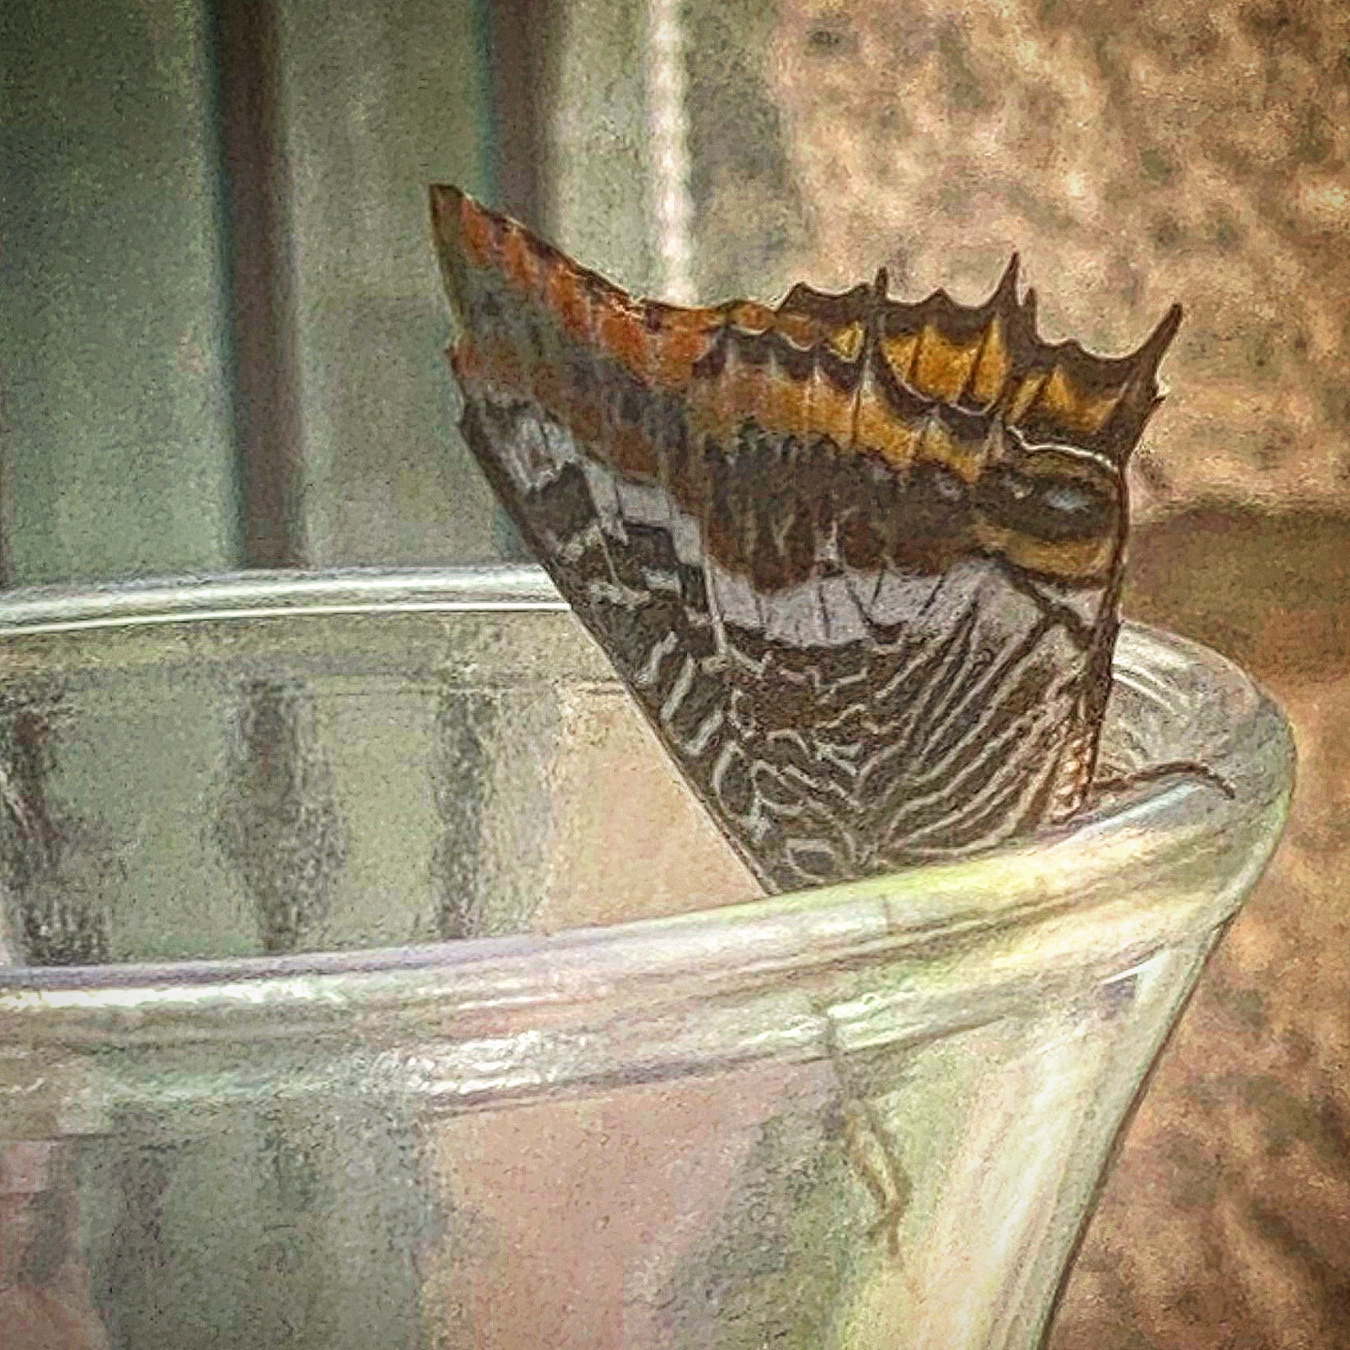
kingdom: Animalia
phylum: Arthropoda
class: Insecta
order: Lepidoptera
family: Nymphalidae
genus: Charaxes
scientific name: Charaxes jasius
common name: Two tailed pasha
